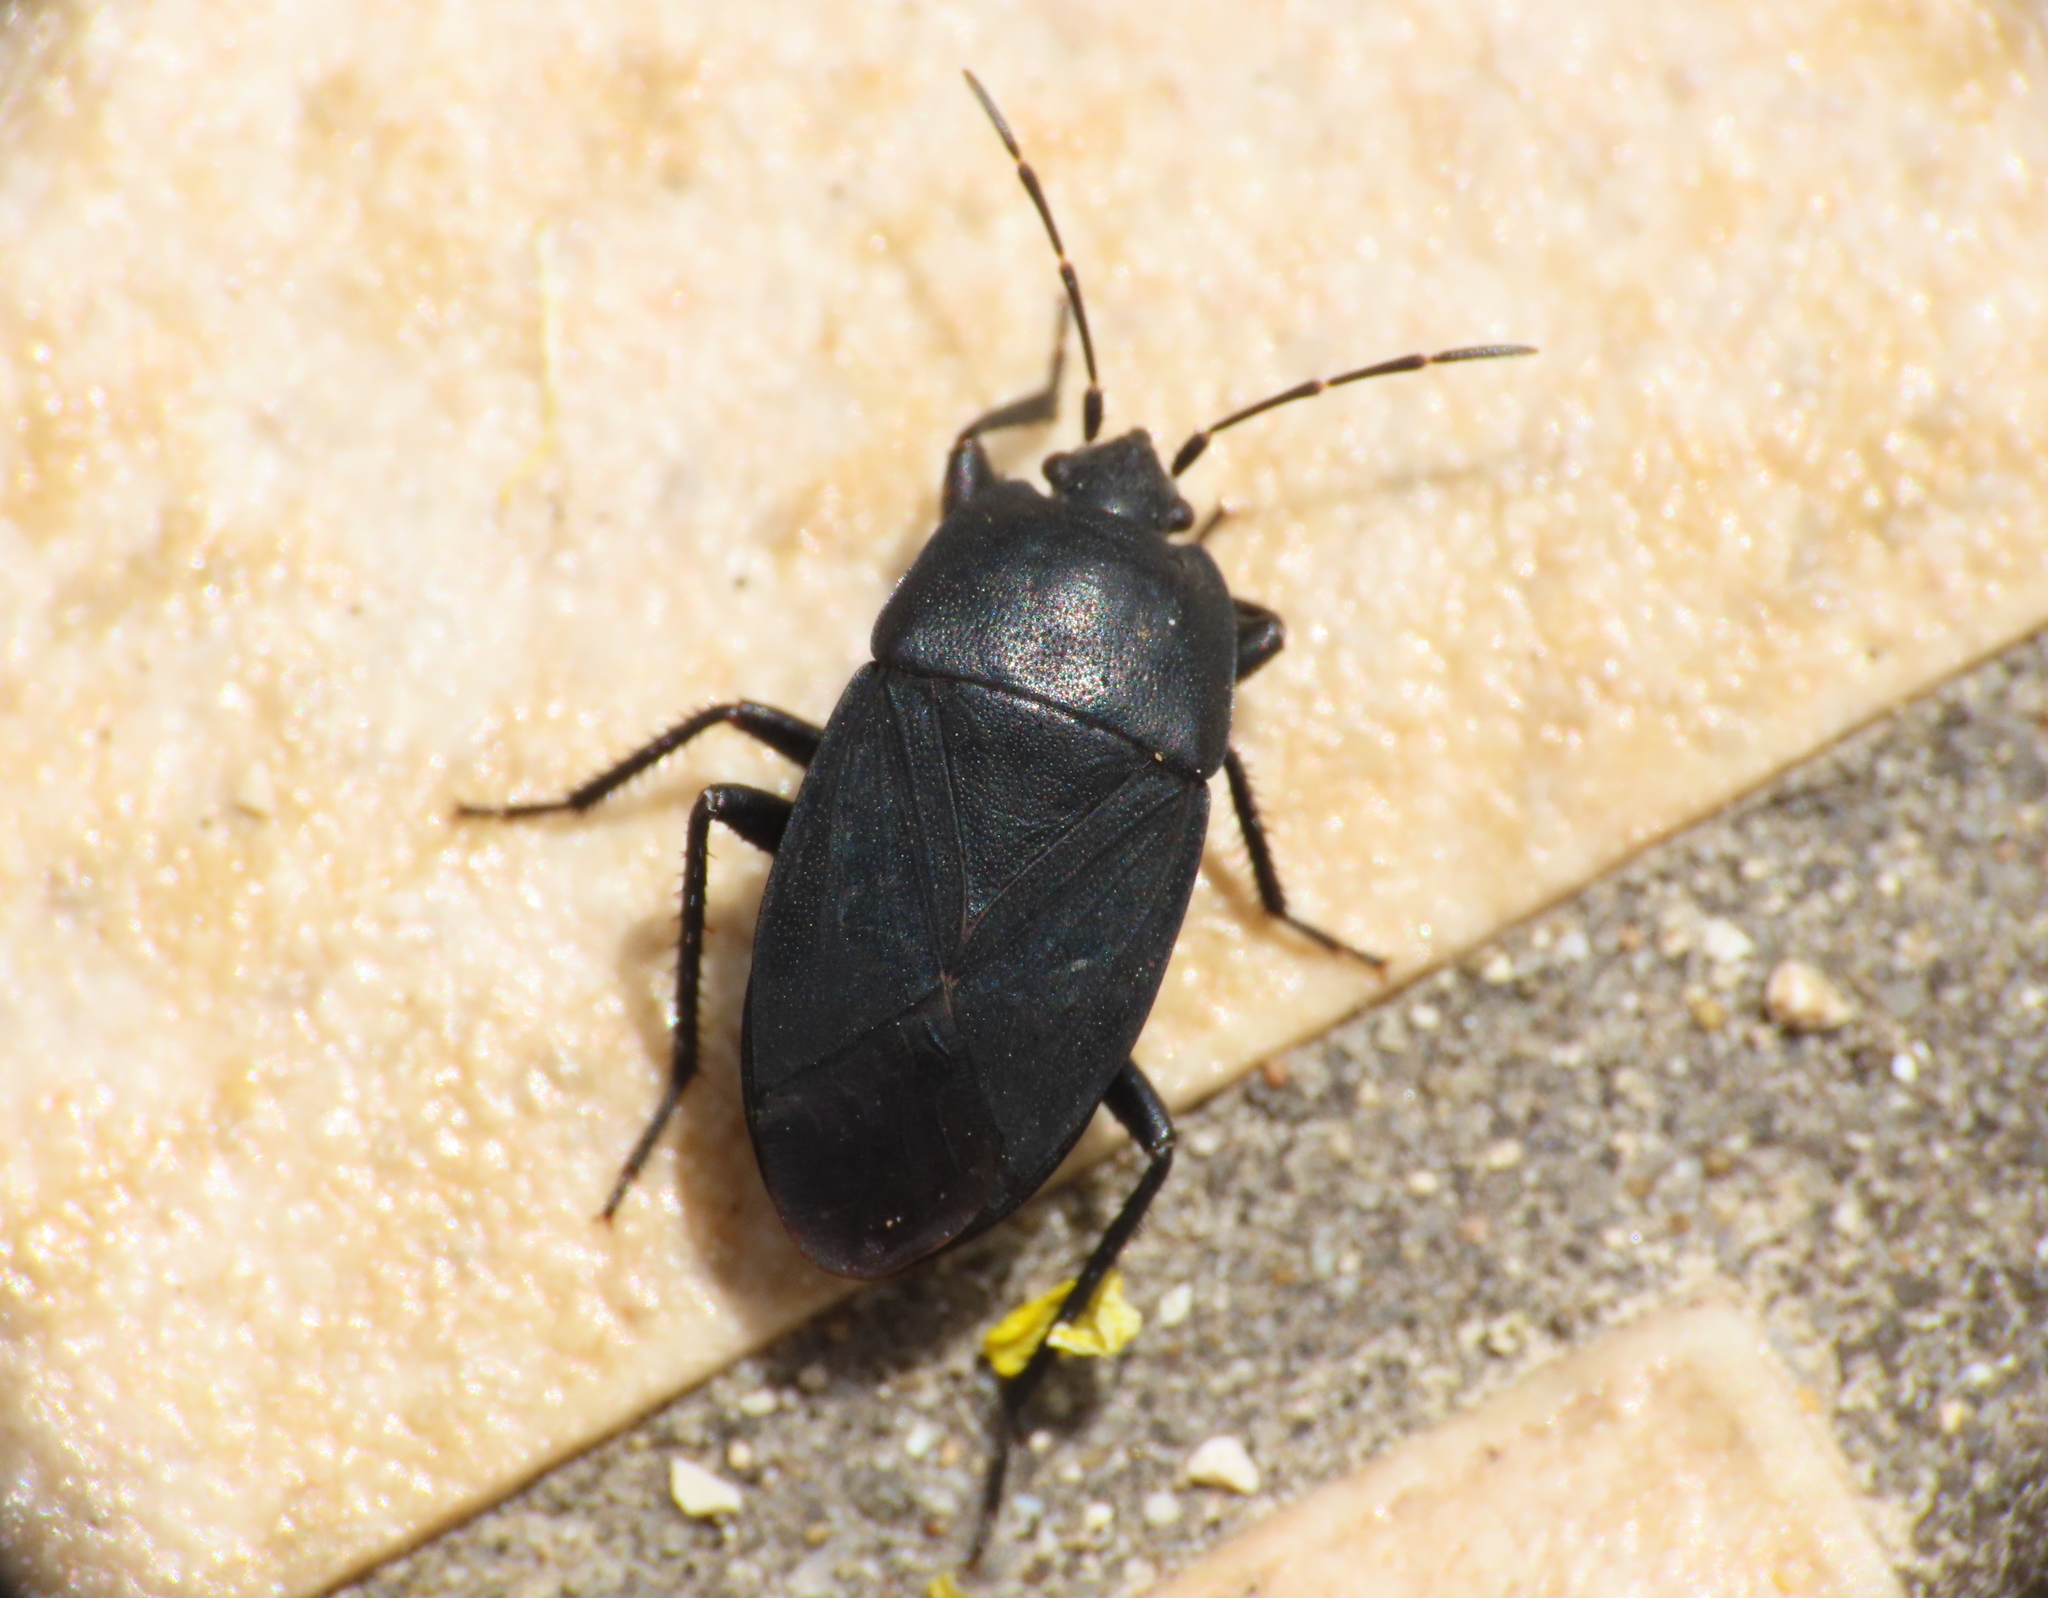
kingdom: Animalia
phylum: Arthropoda
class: Insecta
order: Hemiptera
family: Rhyparochromidae
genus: Aellopus
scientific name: Aellopus atratus
